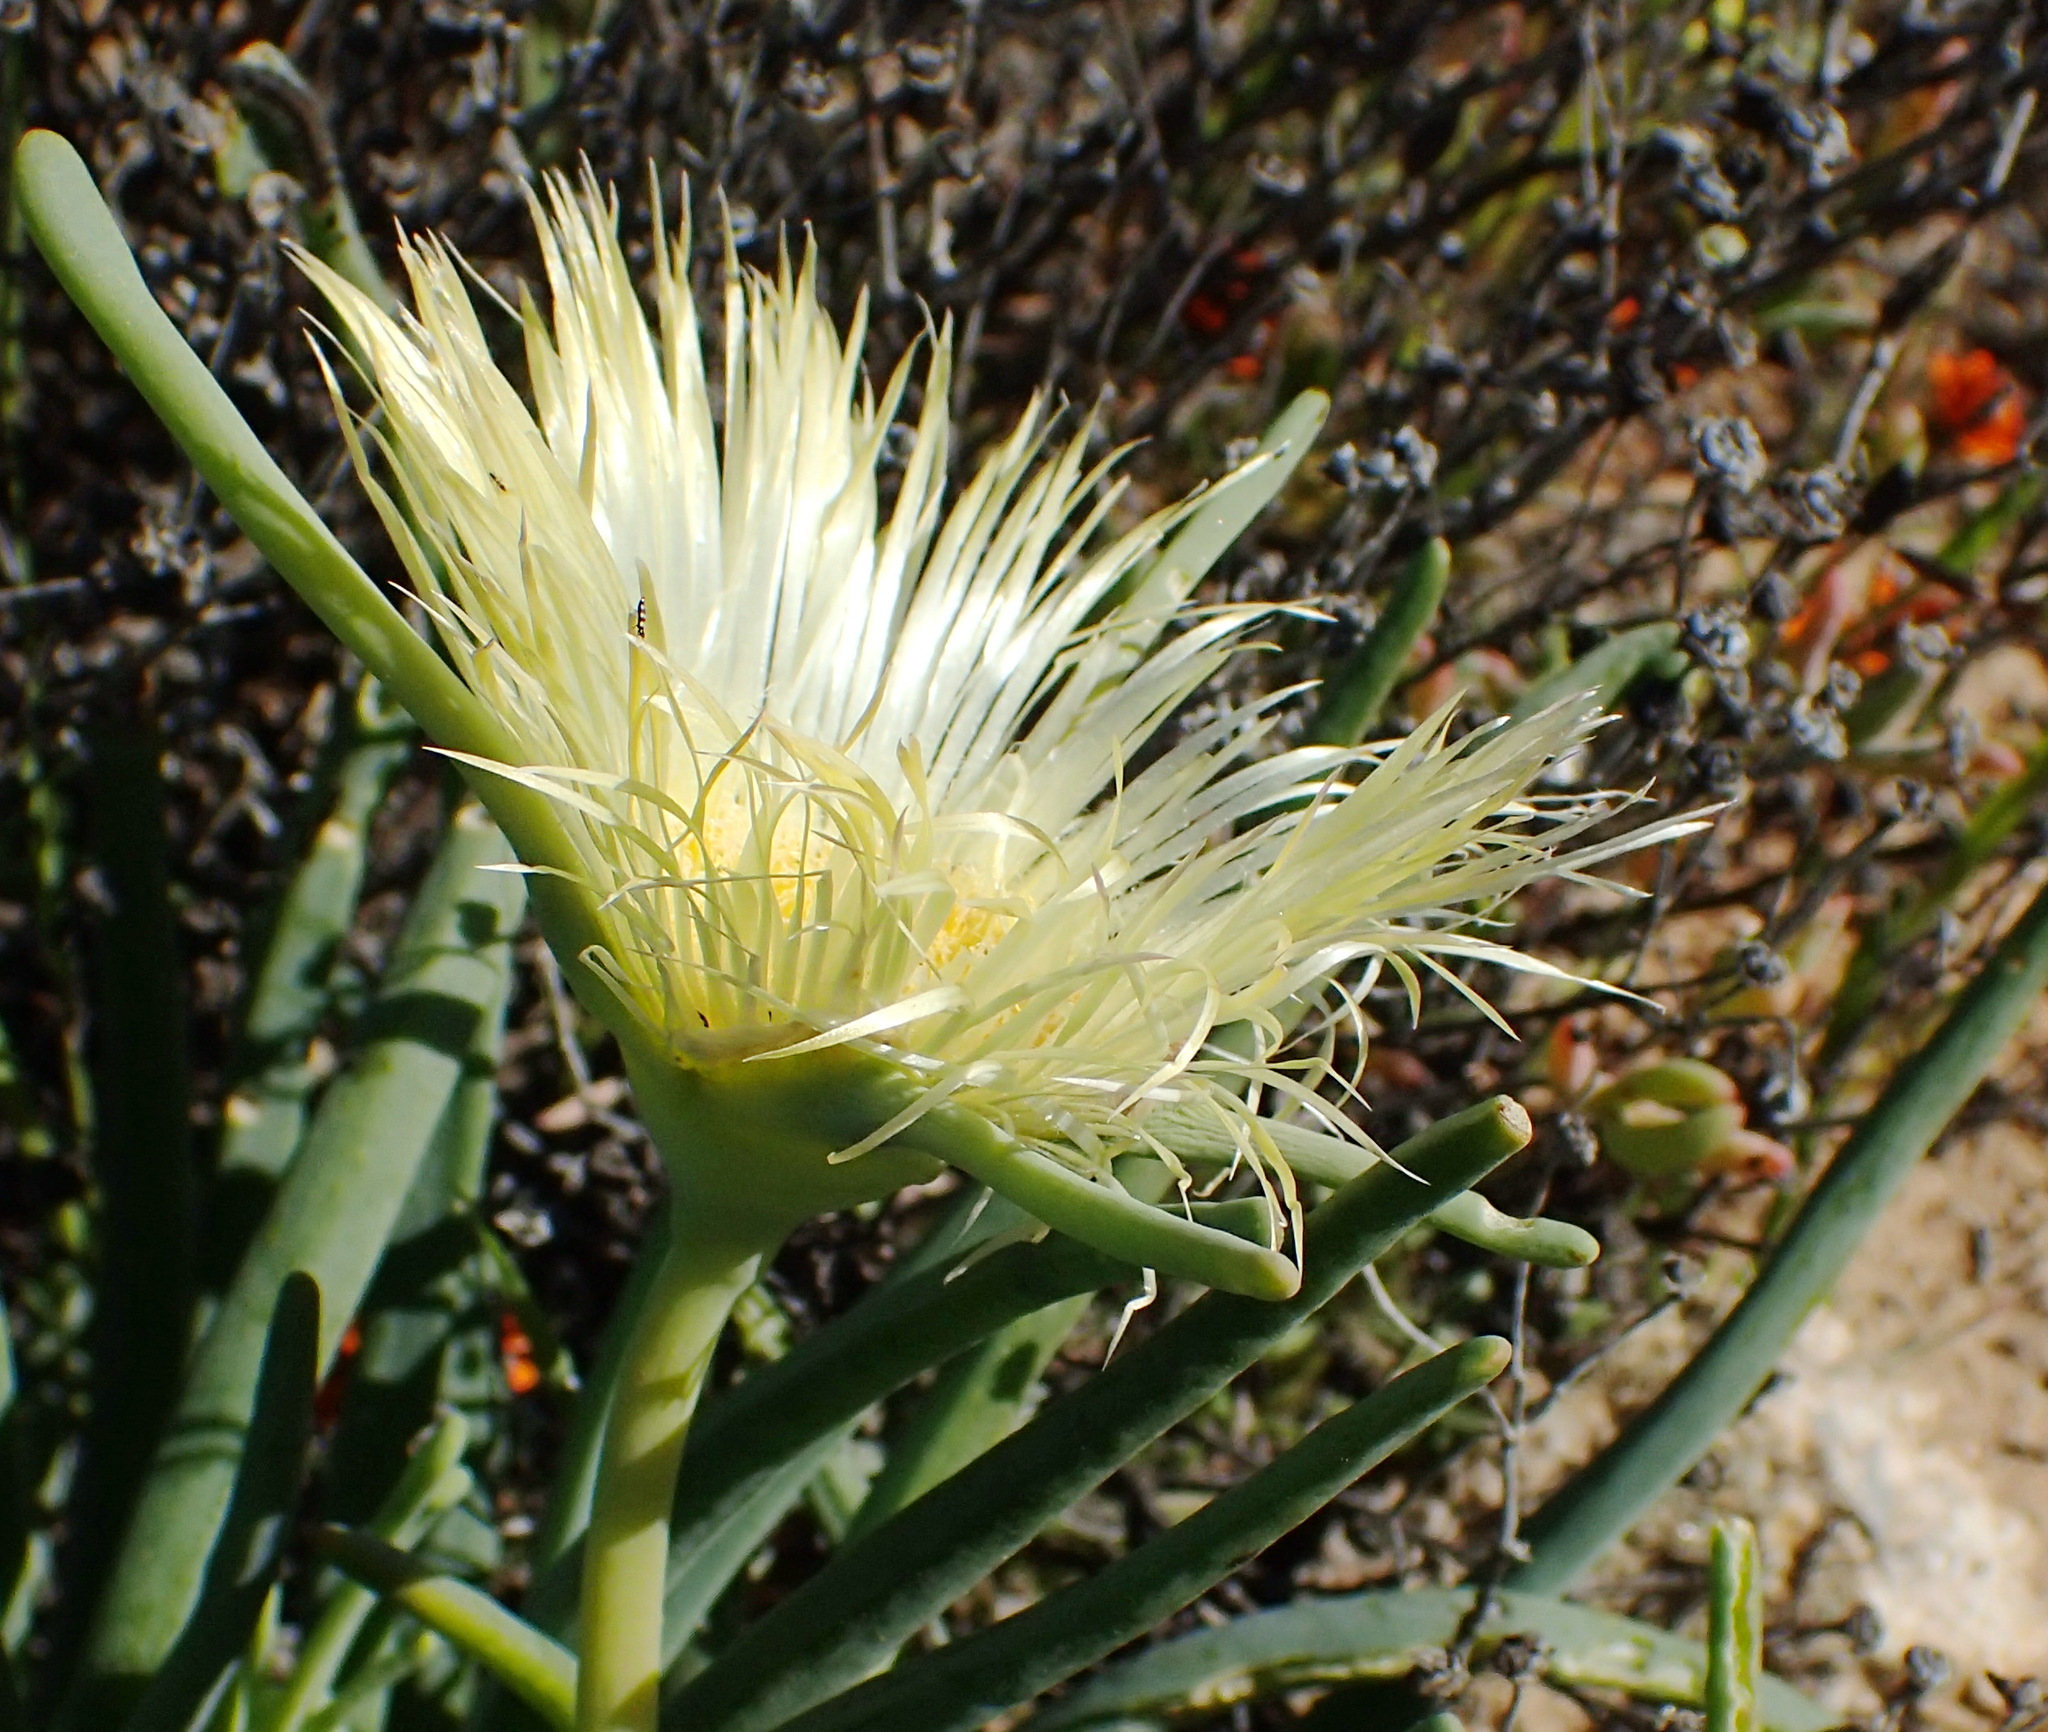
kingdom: Plantae
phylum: Tracheophyta
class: Magnoliopsida
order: Caryophyllales
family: Aizoaceae
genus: Conicosia
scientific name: Conicosia pugioniformis
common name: Narrow-leaved iceplant
